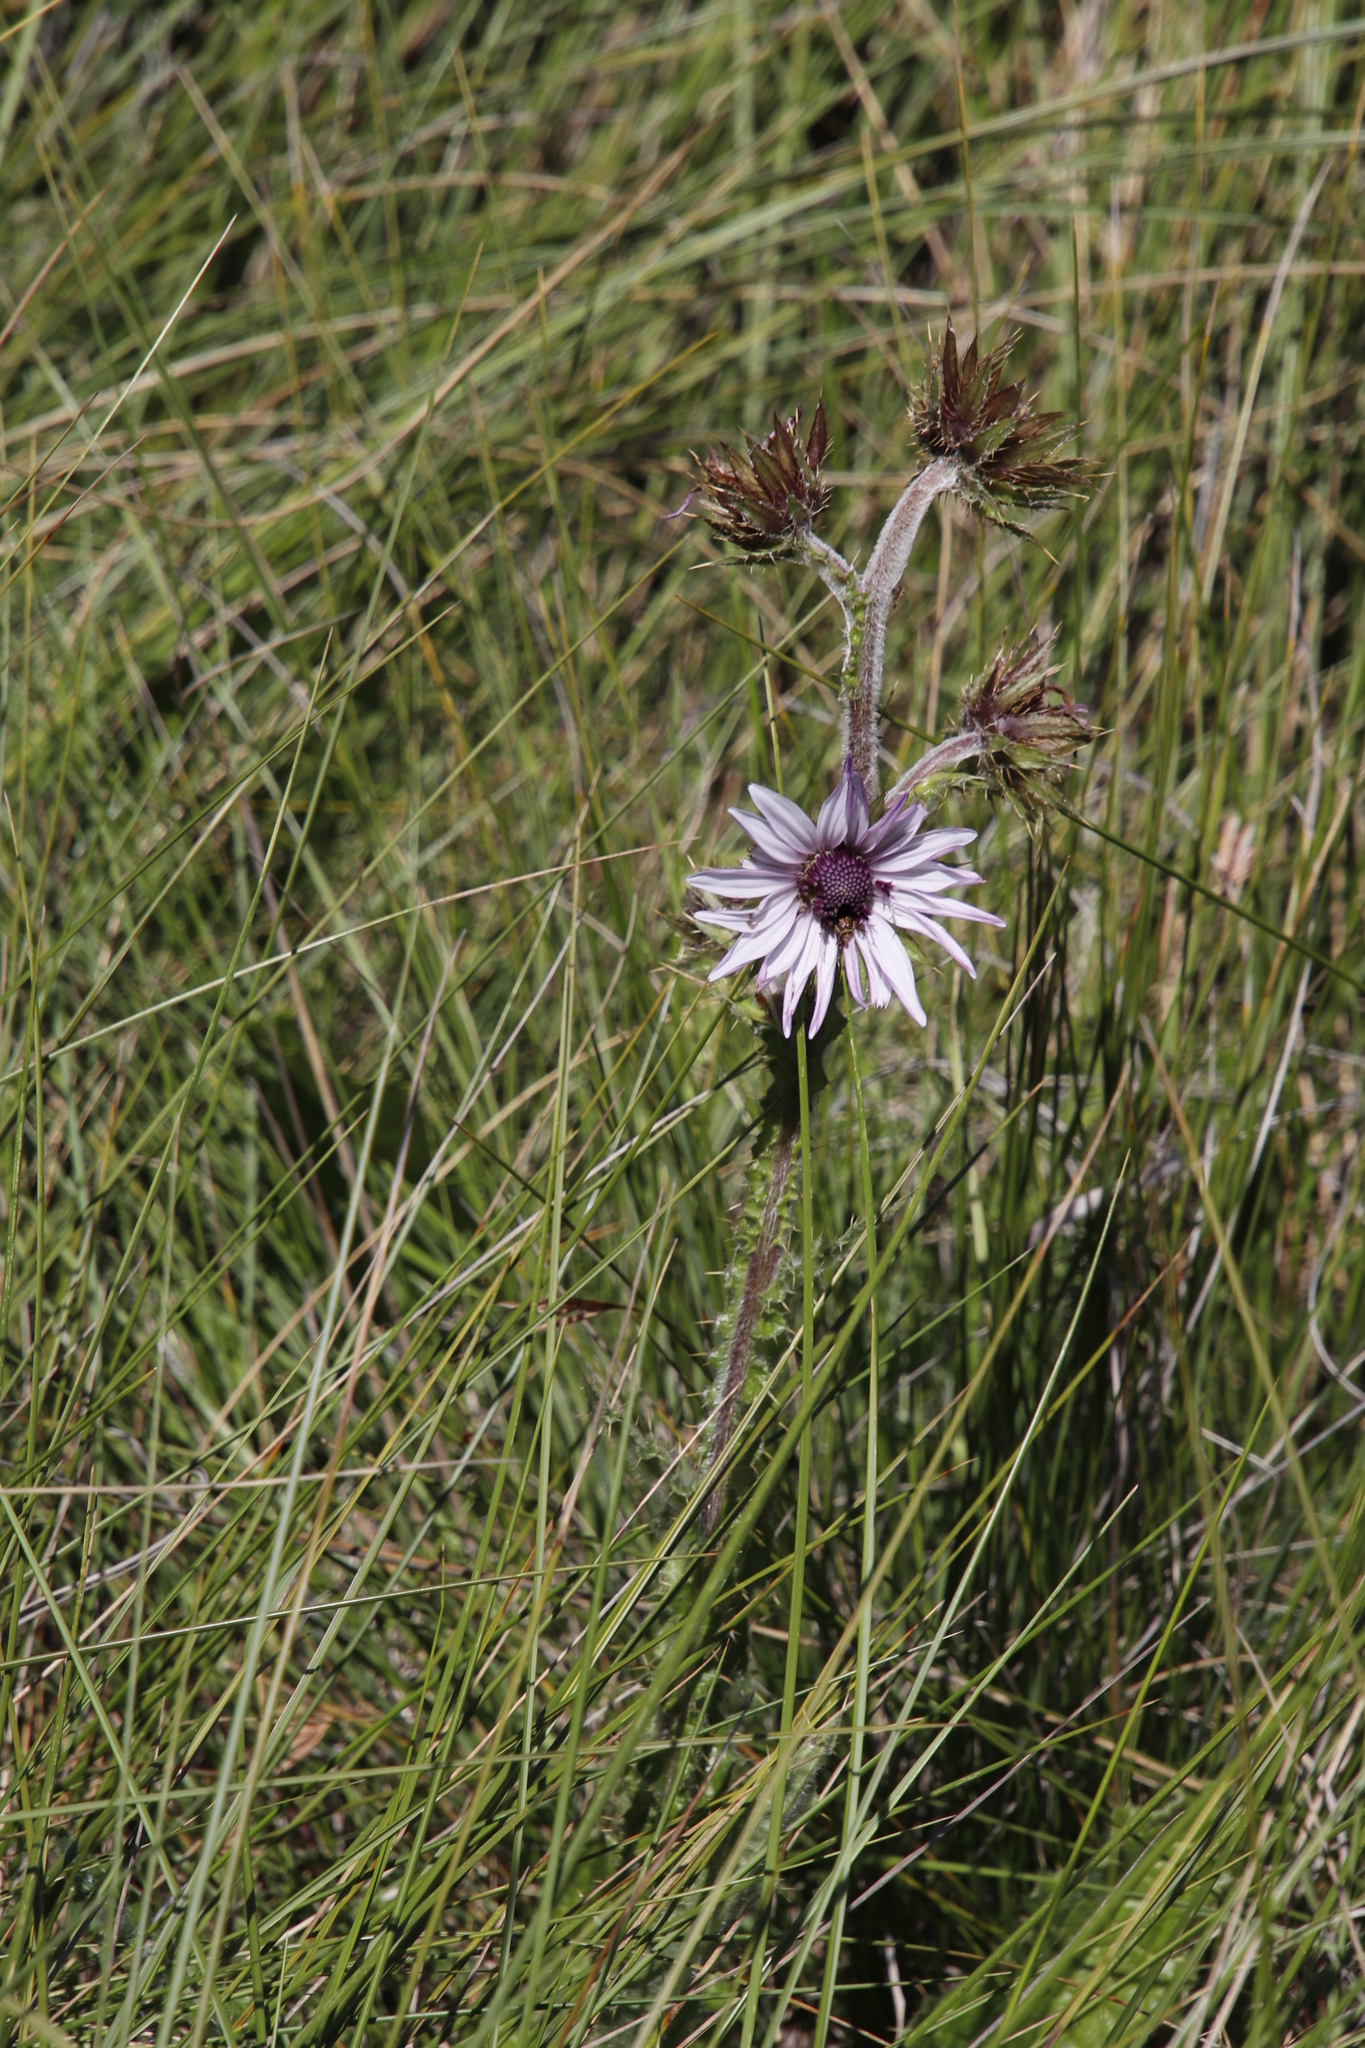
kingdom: Plantae
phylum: Tracheophyta
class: Magnoliopsida
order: Asterales
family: Asteraceae
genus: Berkheya
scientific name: Berkheya purpurea
